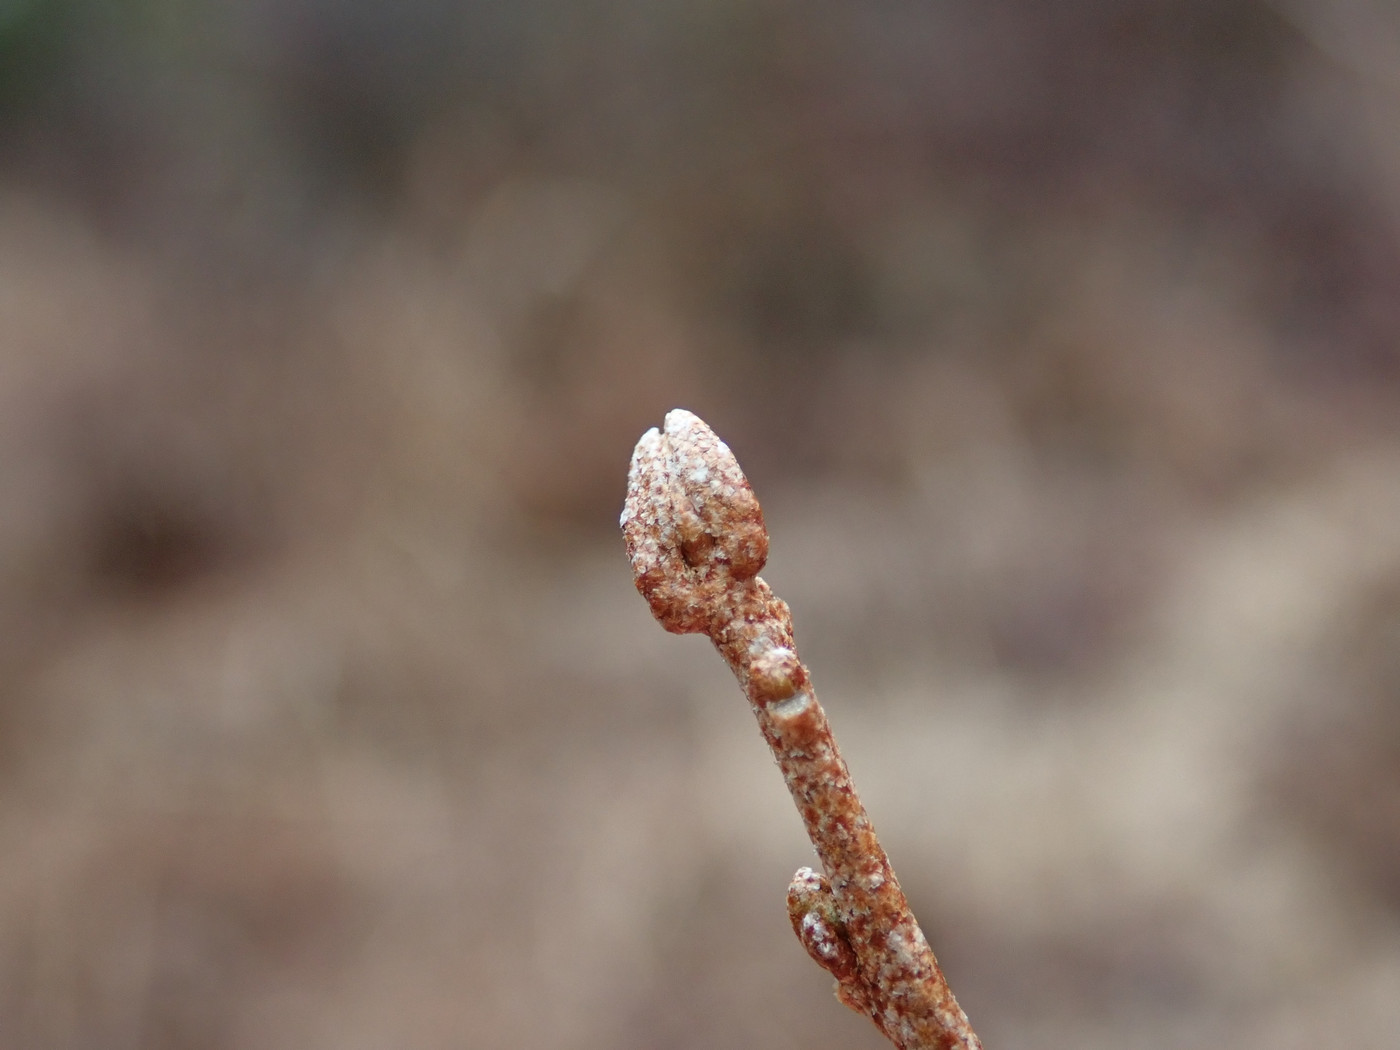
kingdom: Plantae
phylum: Tracheophyta
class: Magnoliopsida
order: Rosales
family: Elaeagnaceae
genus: Elaeagnus
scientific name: Elaeagnus umbellata
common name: Autumn olive
